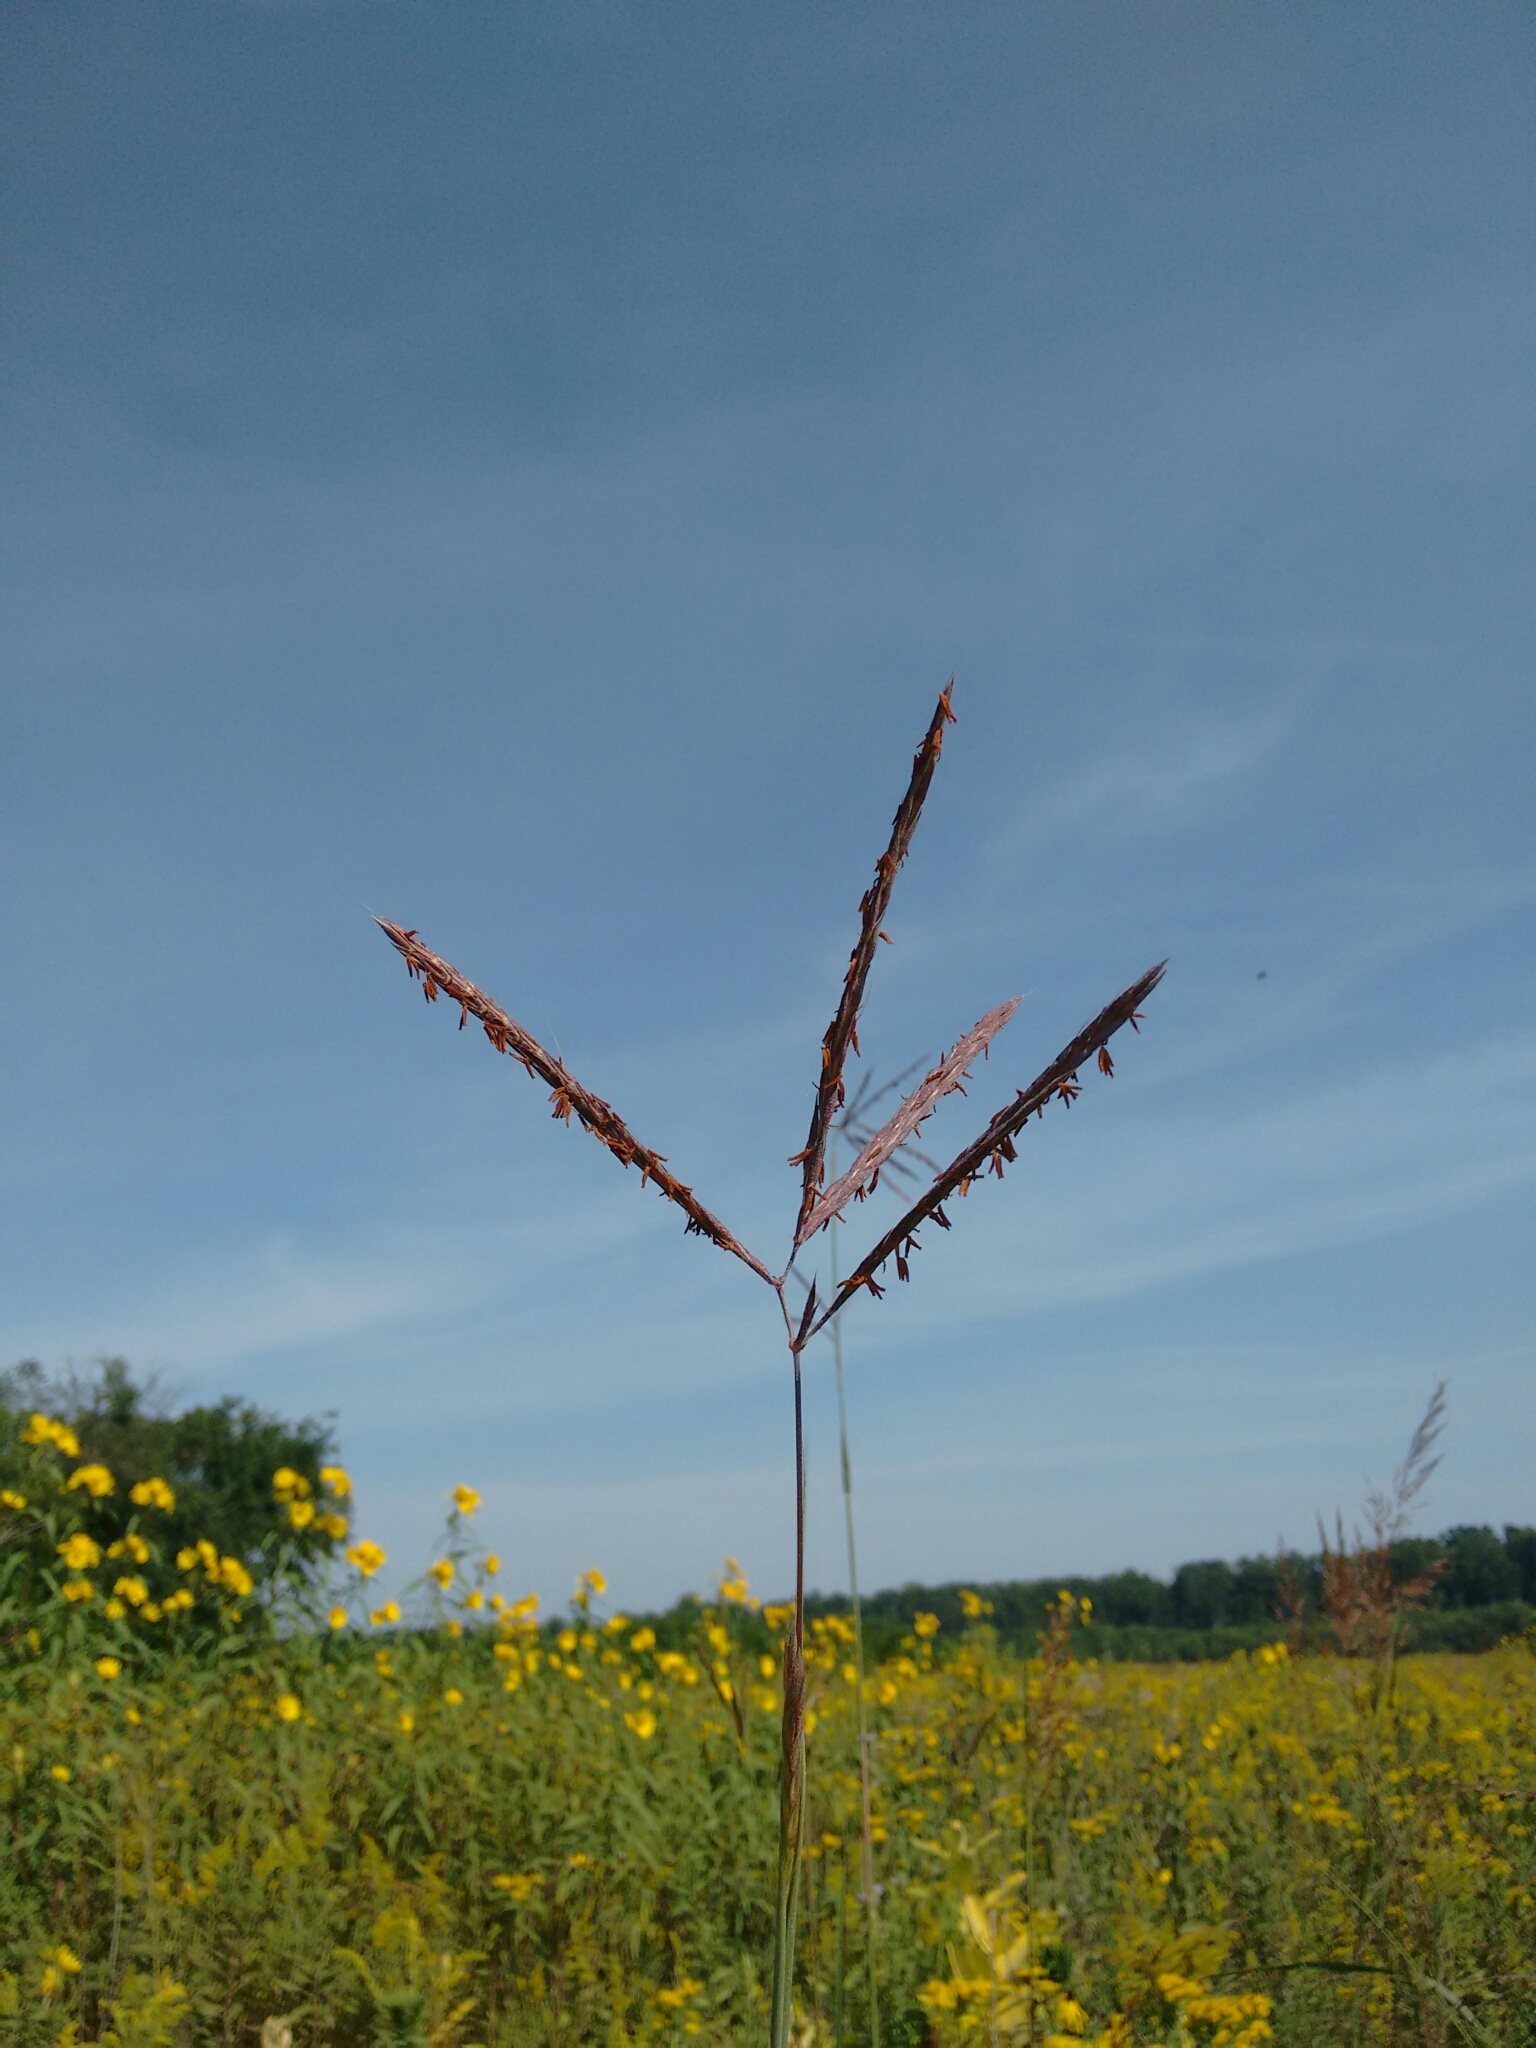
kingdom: Plantae
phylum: Tracheophyta
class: Liliopsida
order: Poales
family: Poaceae
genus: Andropogon
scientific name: Andropogon gerardi
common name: Big bluestem
